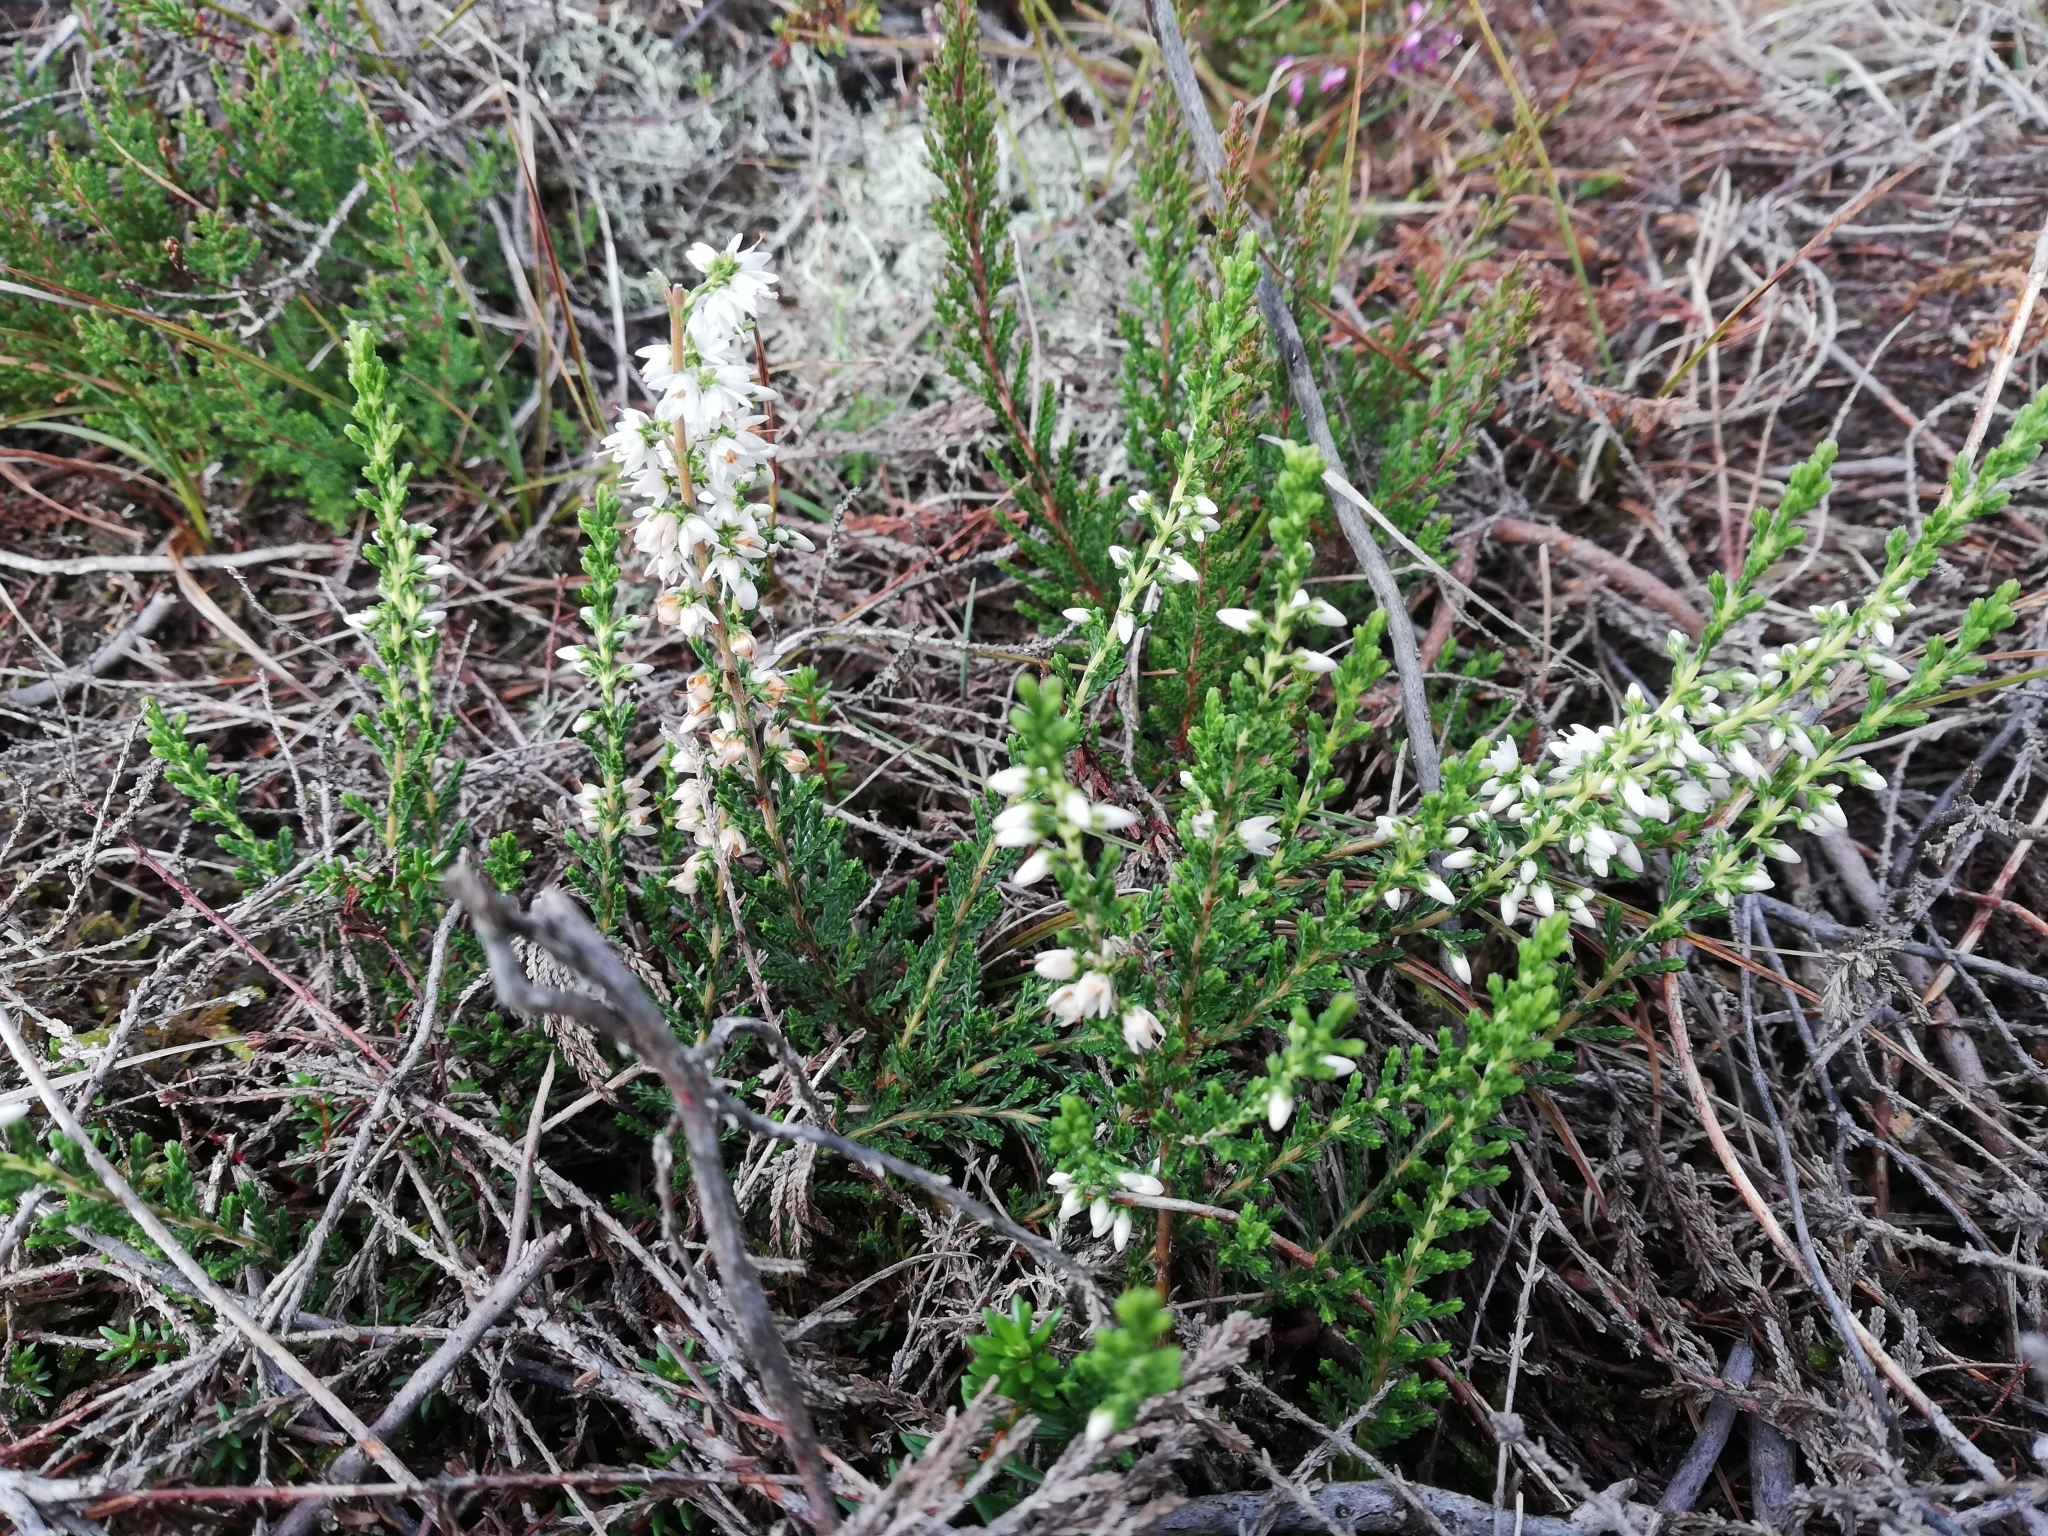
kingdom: Plantae
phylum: Tracheophyta
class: Magnoliopsida
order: Ericales
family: Ericaceae
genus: Calluna
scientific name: Calluna vulgaris
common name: Heather
